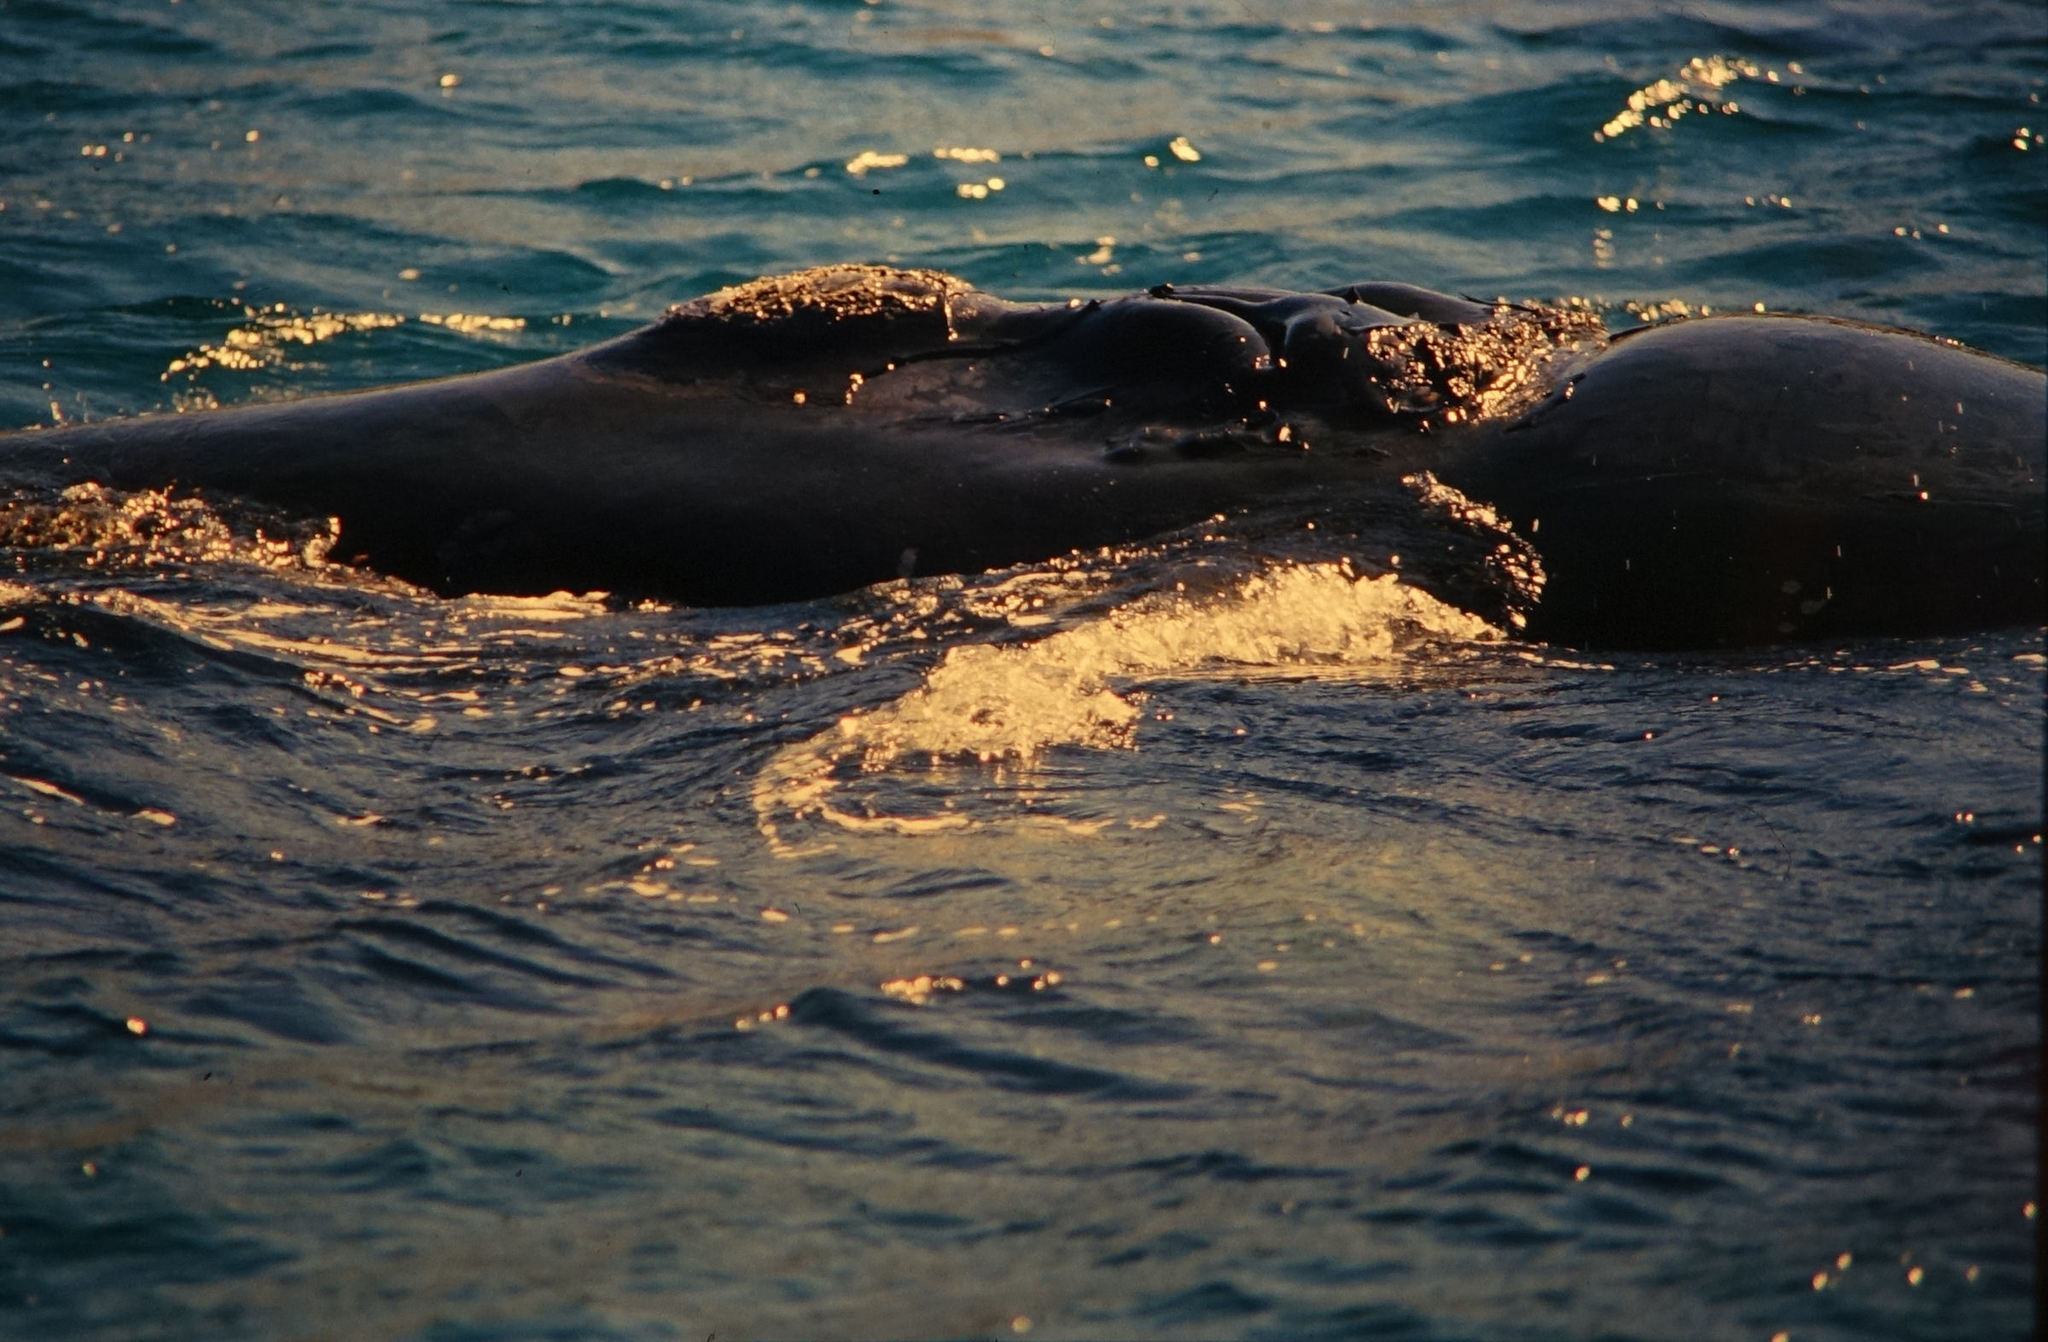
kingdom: Animalia
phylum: Chordata
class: Mammalia
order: Cetacea
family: Balaenidae
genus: Eubalaena
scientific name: Eubalaena australis
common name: Southern right whale
